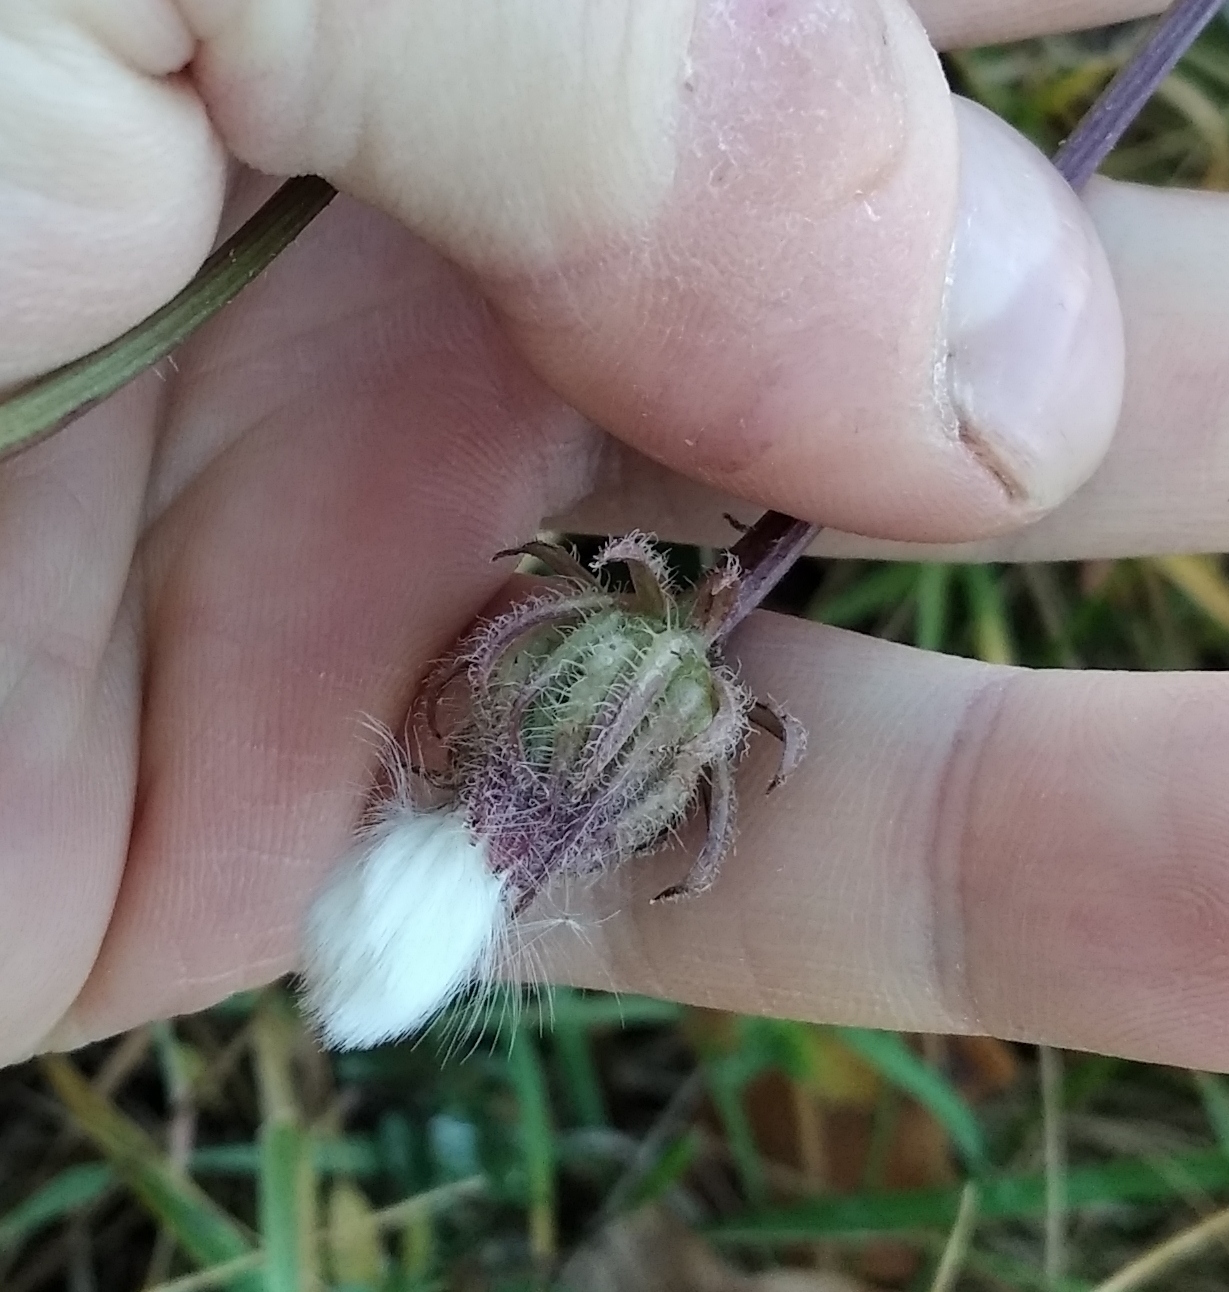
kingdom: Plantae
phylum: Tracheophyta
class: Magnoliopsida
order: Asterales
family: Asteraceae
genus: Crepis
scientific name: Crepis foetida
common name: Stinking hawk's-beard
